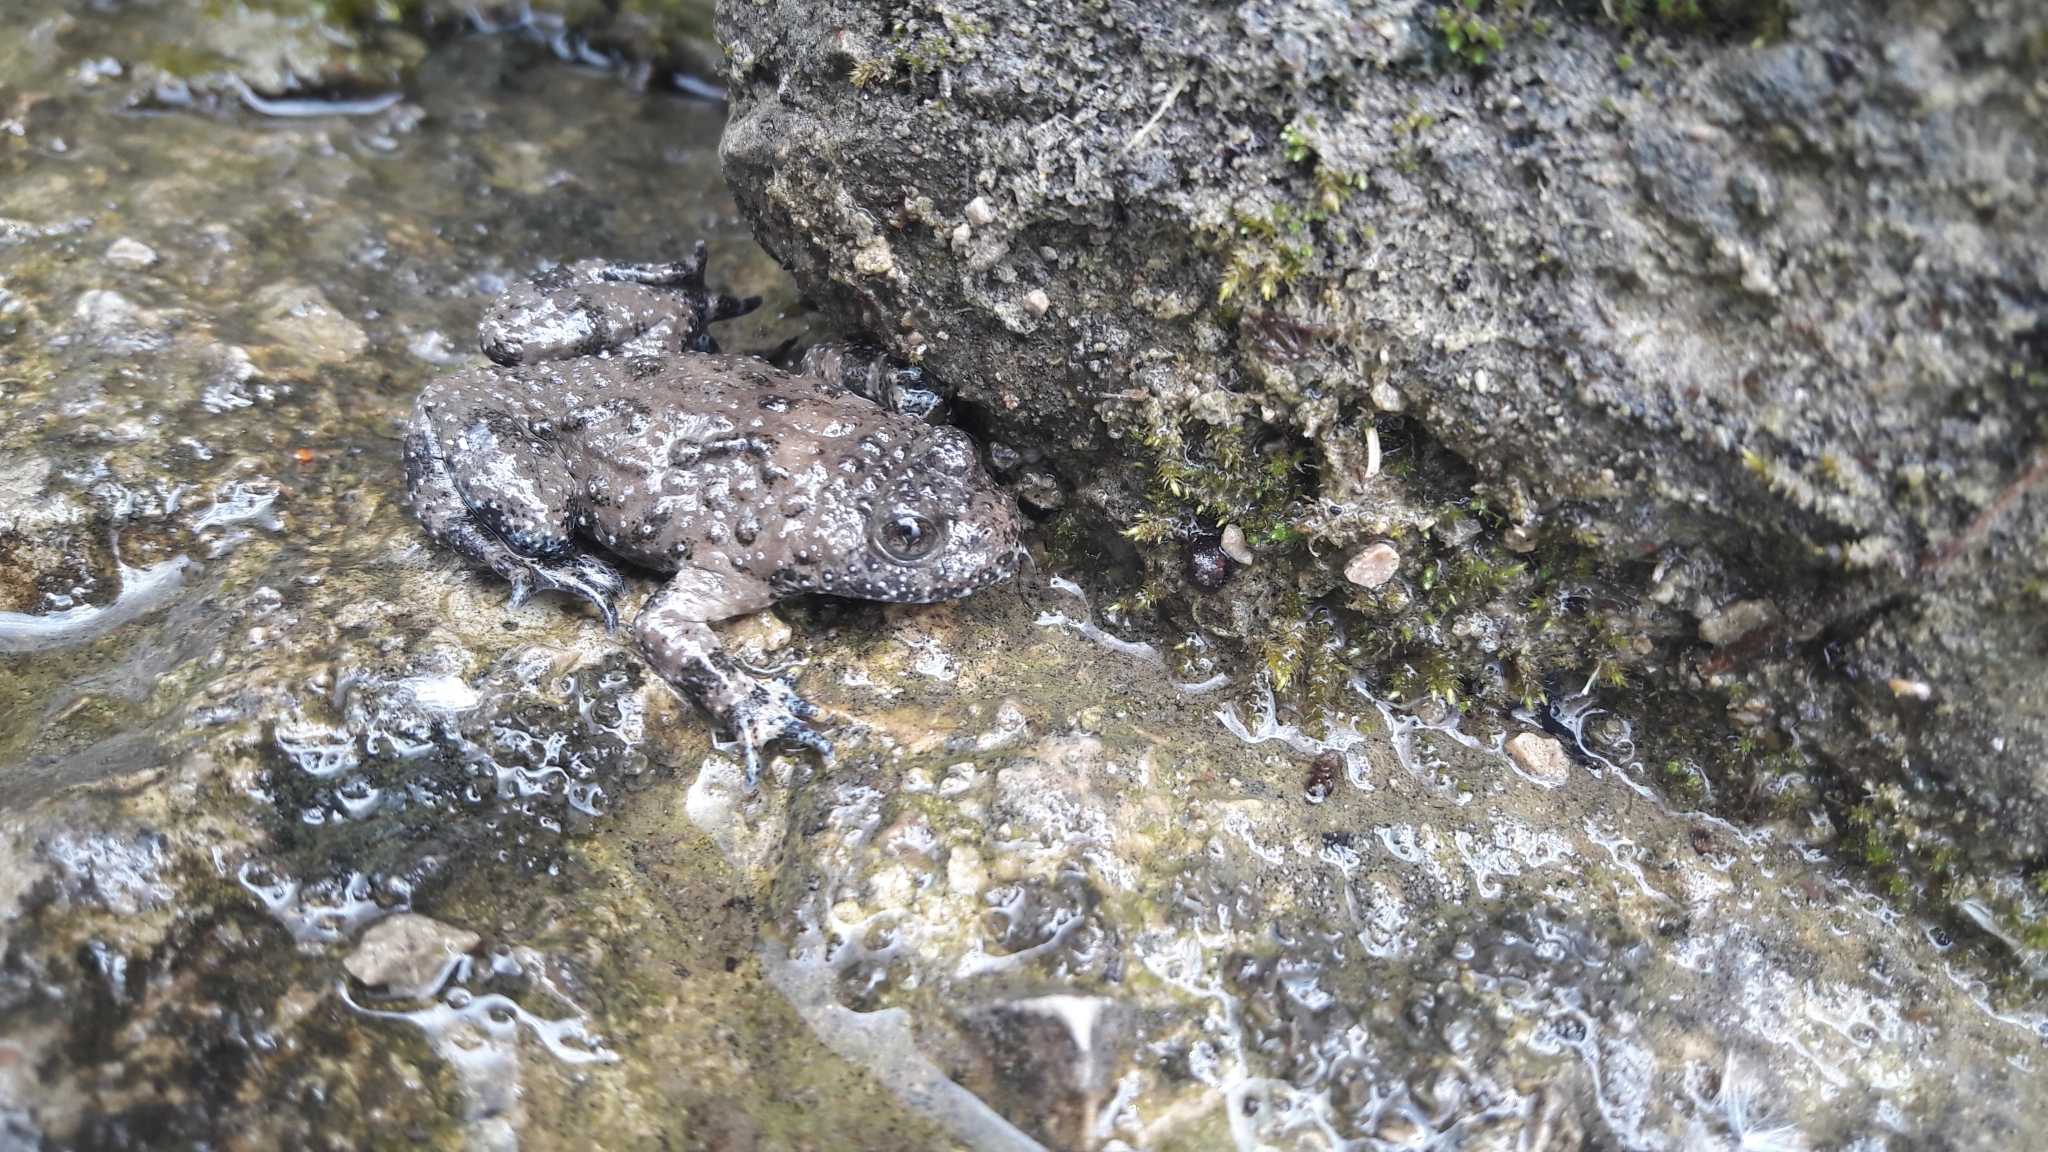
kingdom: Animalia
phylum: Chordata
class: Amphibia
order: Anura
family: Bombinatoridae
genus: Bombina
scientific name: Bombina variegata
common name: Yellow-bellied toad
